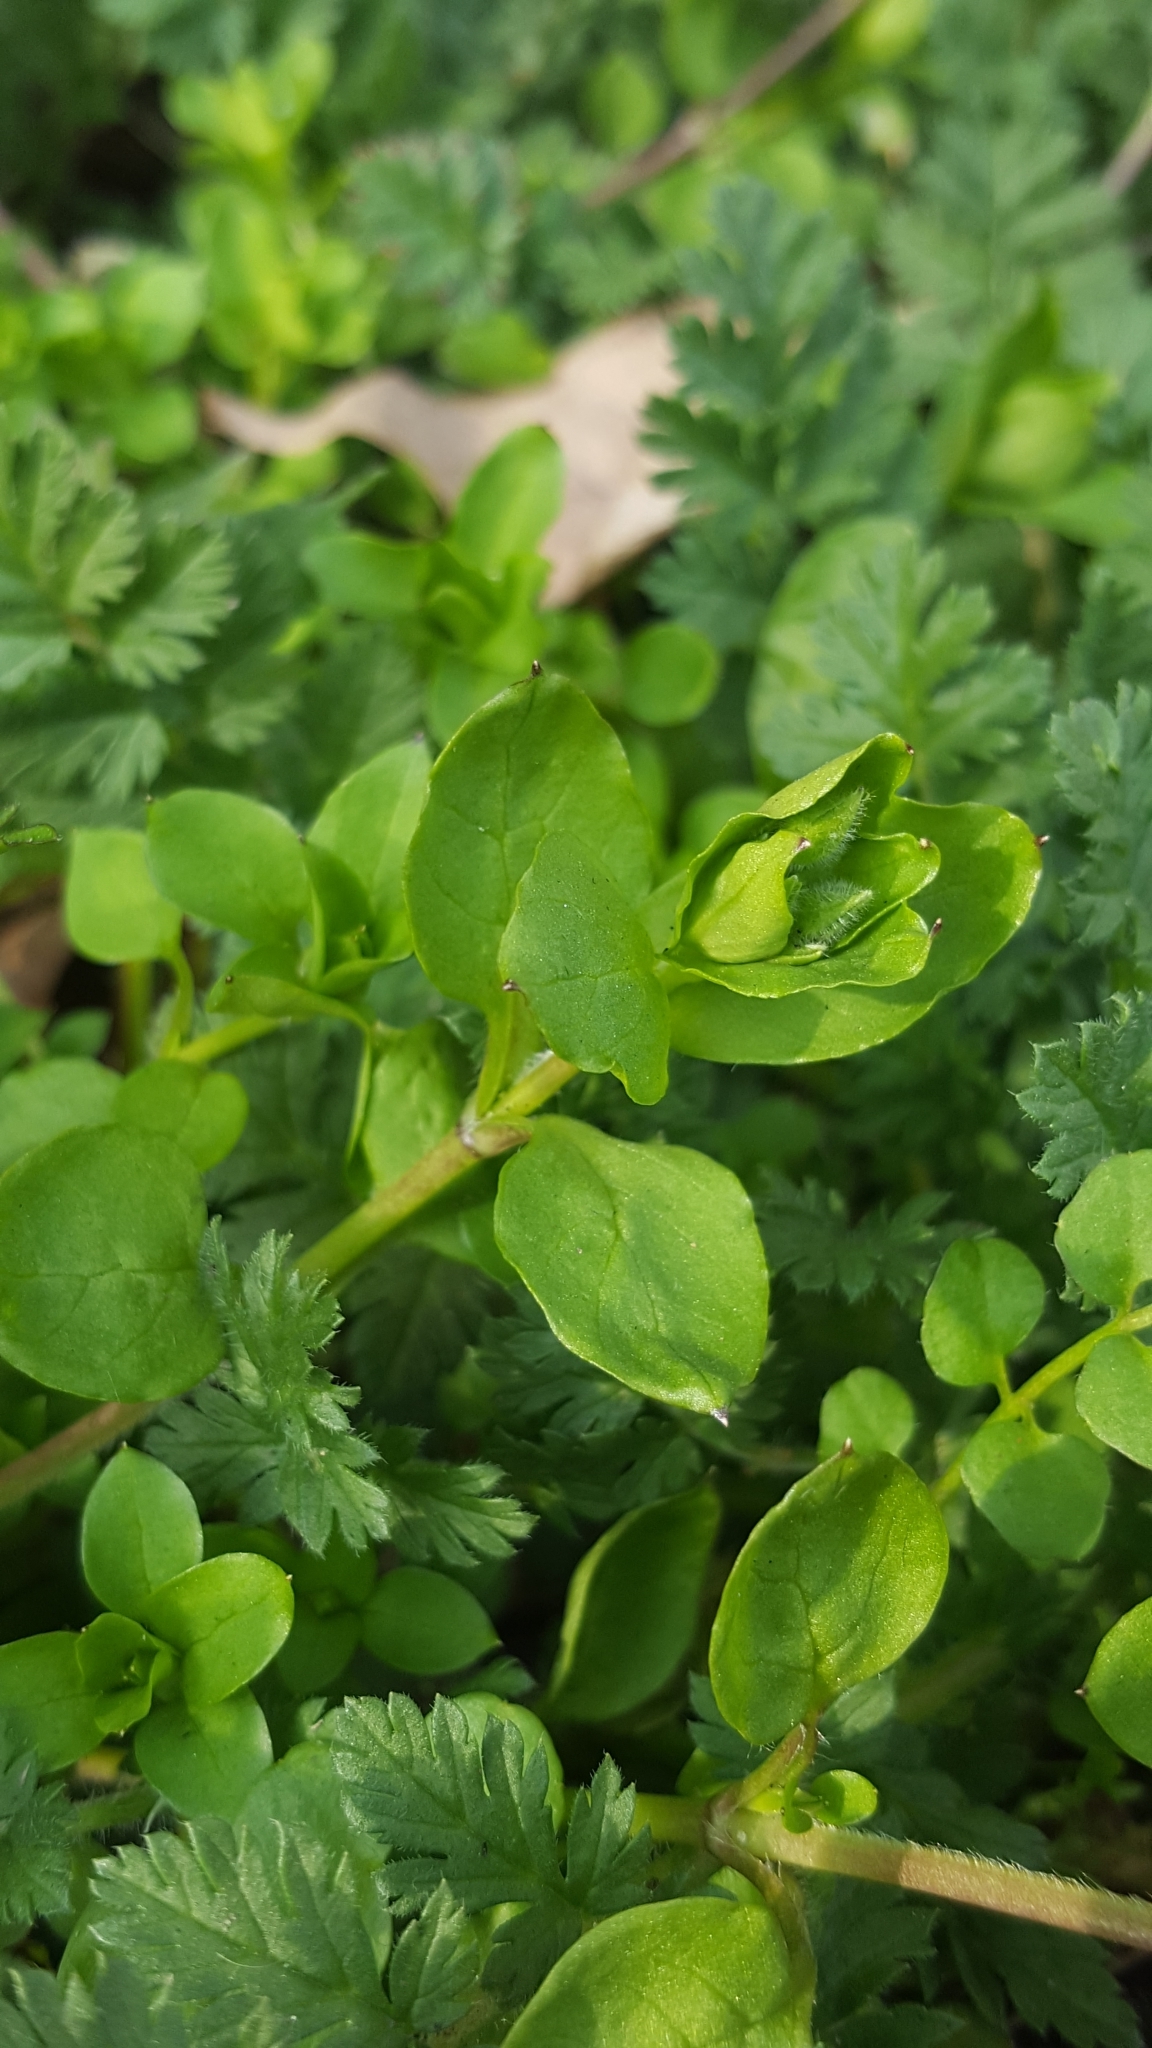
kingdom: Plantae
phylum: Tracheophyta
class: Magnoliopsida
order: Caryophyllales
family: Caryophyllaceae
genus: Stellaria
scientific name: Stellaria media
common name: Common chickweed
